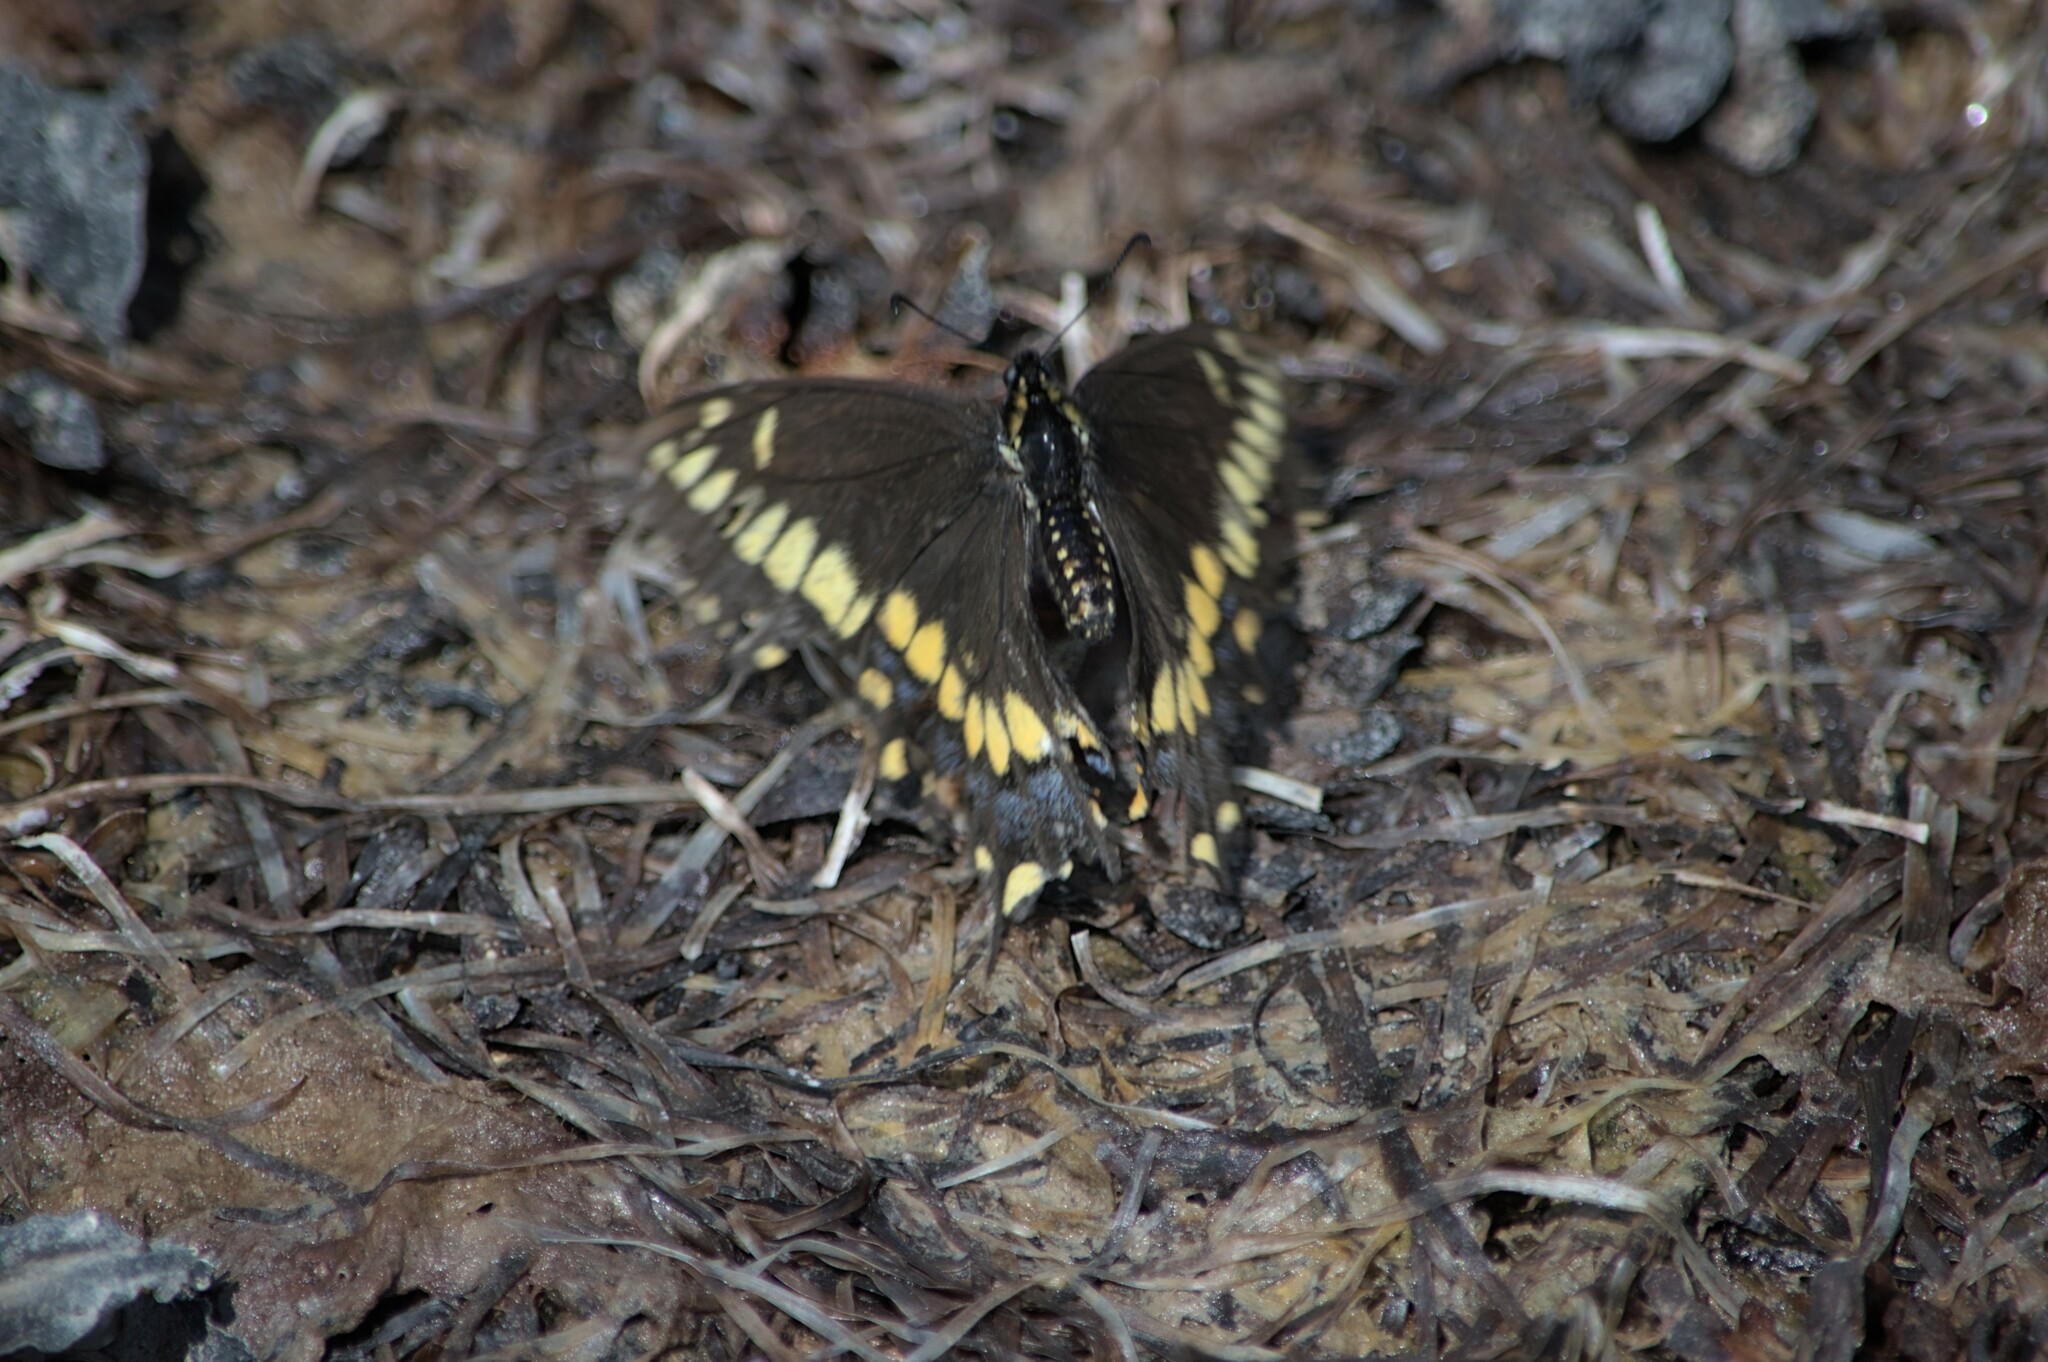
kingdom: Animalia
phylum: Arthropoda
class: Insecta
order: Lepidoptera
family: Papilionidae
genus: Papilio
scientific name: Papilio brevicauda
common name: Short tailed swallowtail
